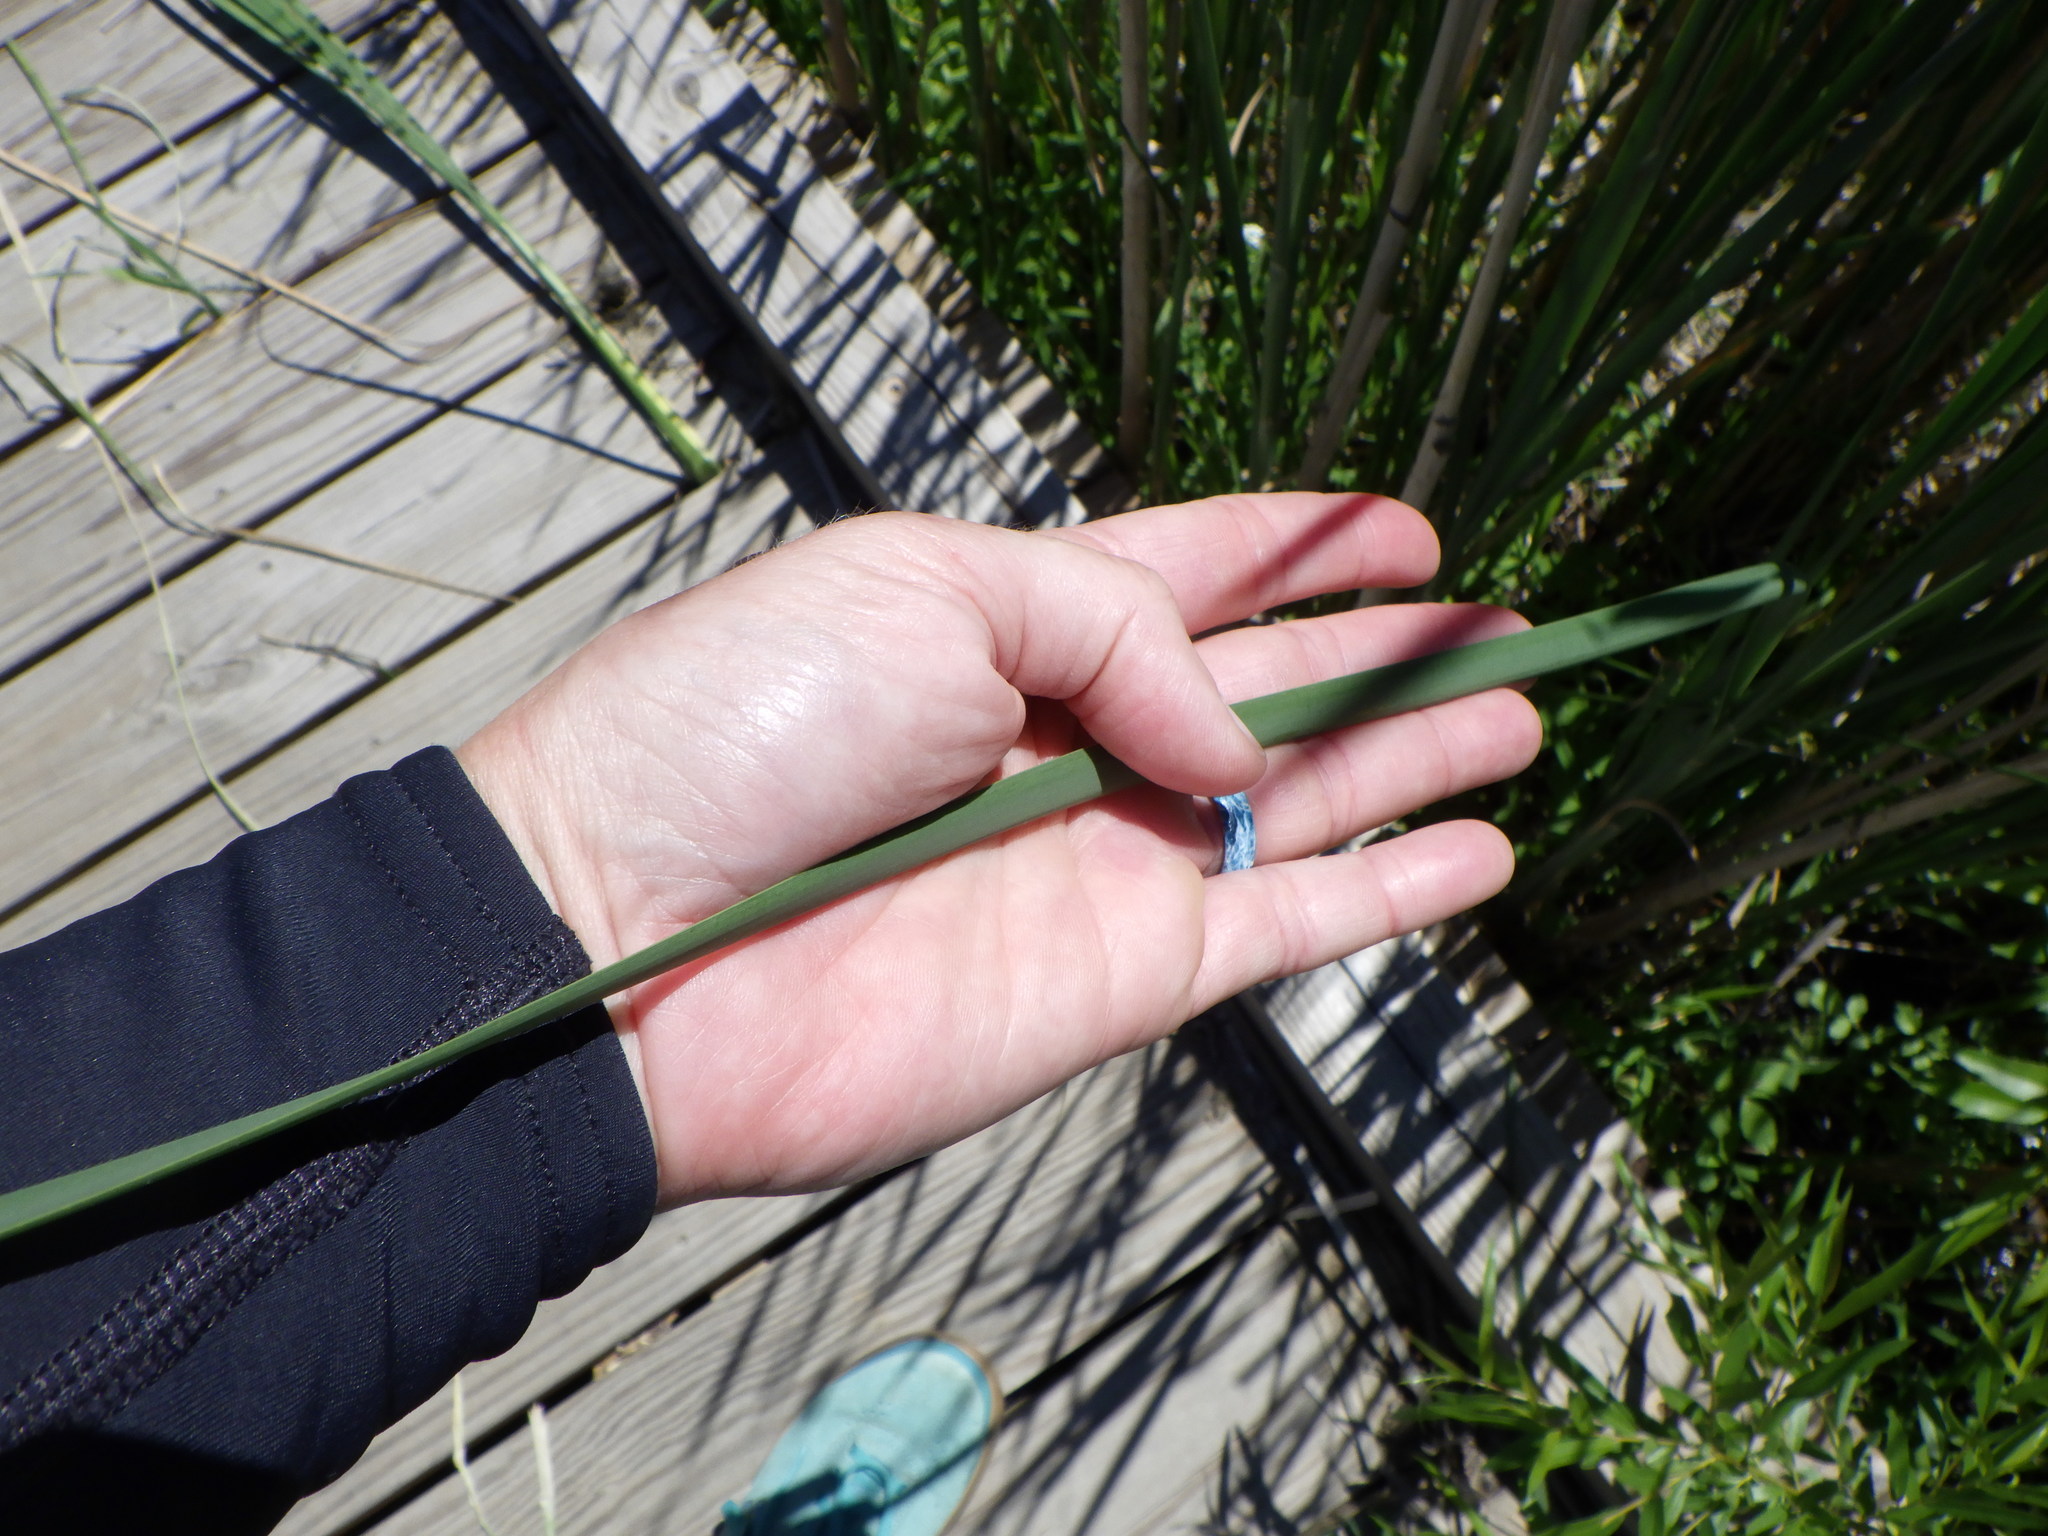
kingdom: Plantae
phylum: Tracheophyta
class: Liliopsida
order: Poales
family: Typhaceae
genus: Typha
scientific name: Typha angustifolia
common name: Lesser bulrush
